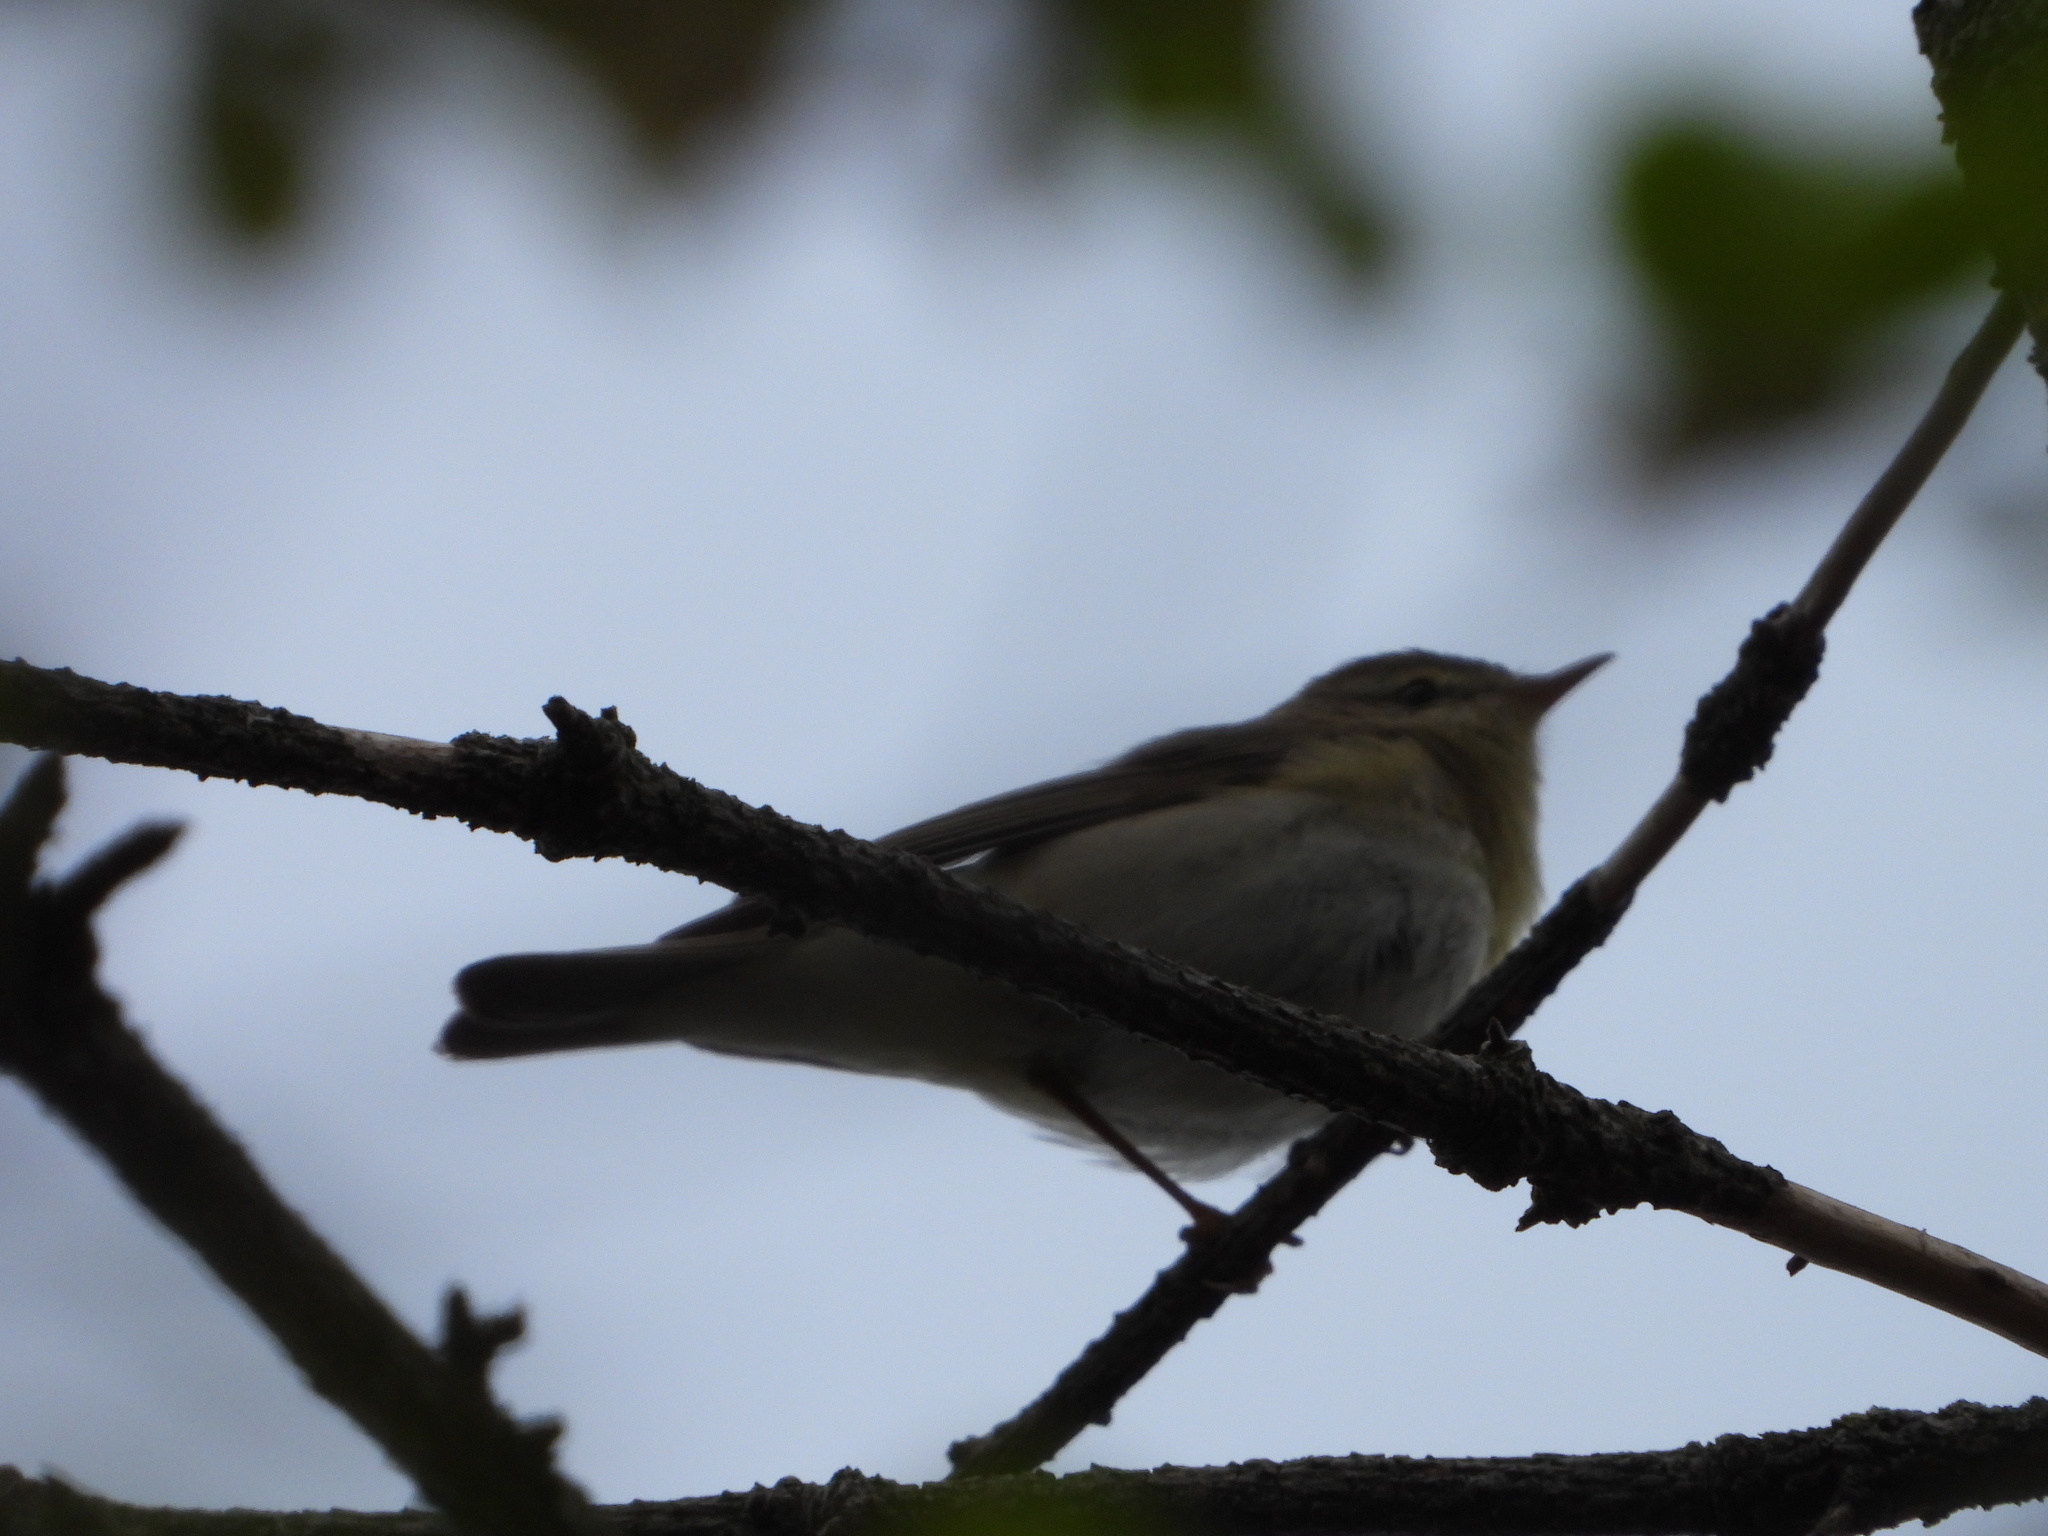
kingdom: Animalia
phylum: Chordata
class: Aves
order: Passeriformes
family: Phylloscopidae
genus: Phylloscopus
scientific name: Phylloscopus trochilus
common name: Willow warbler
